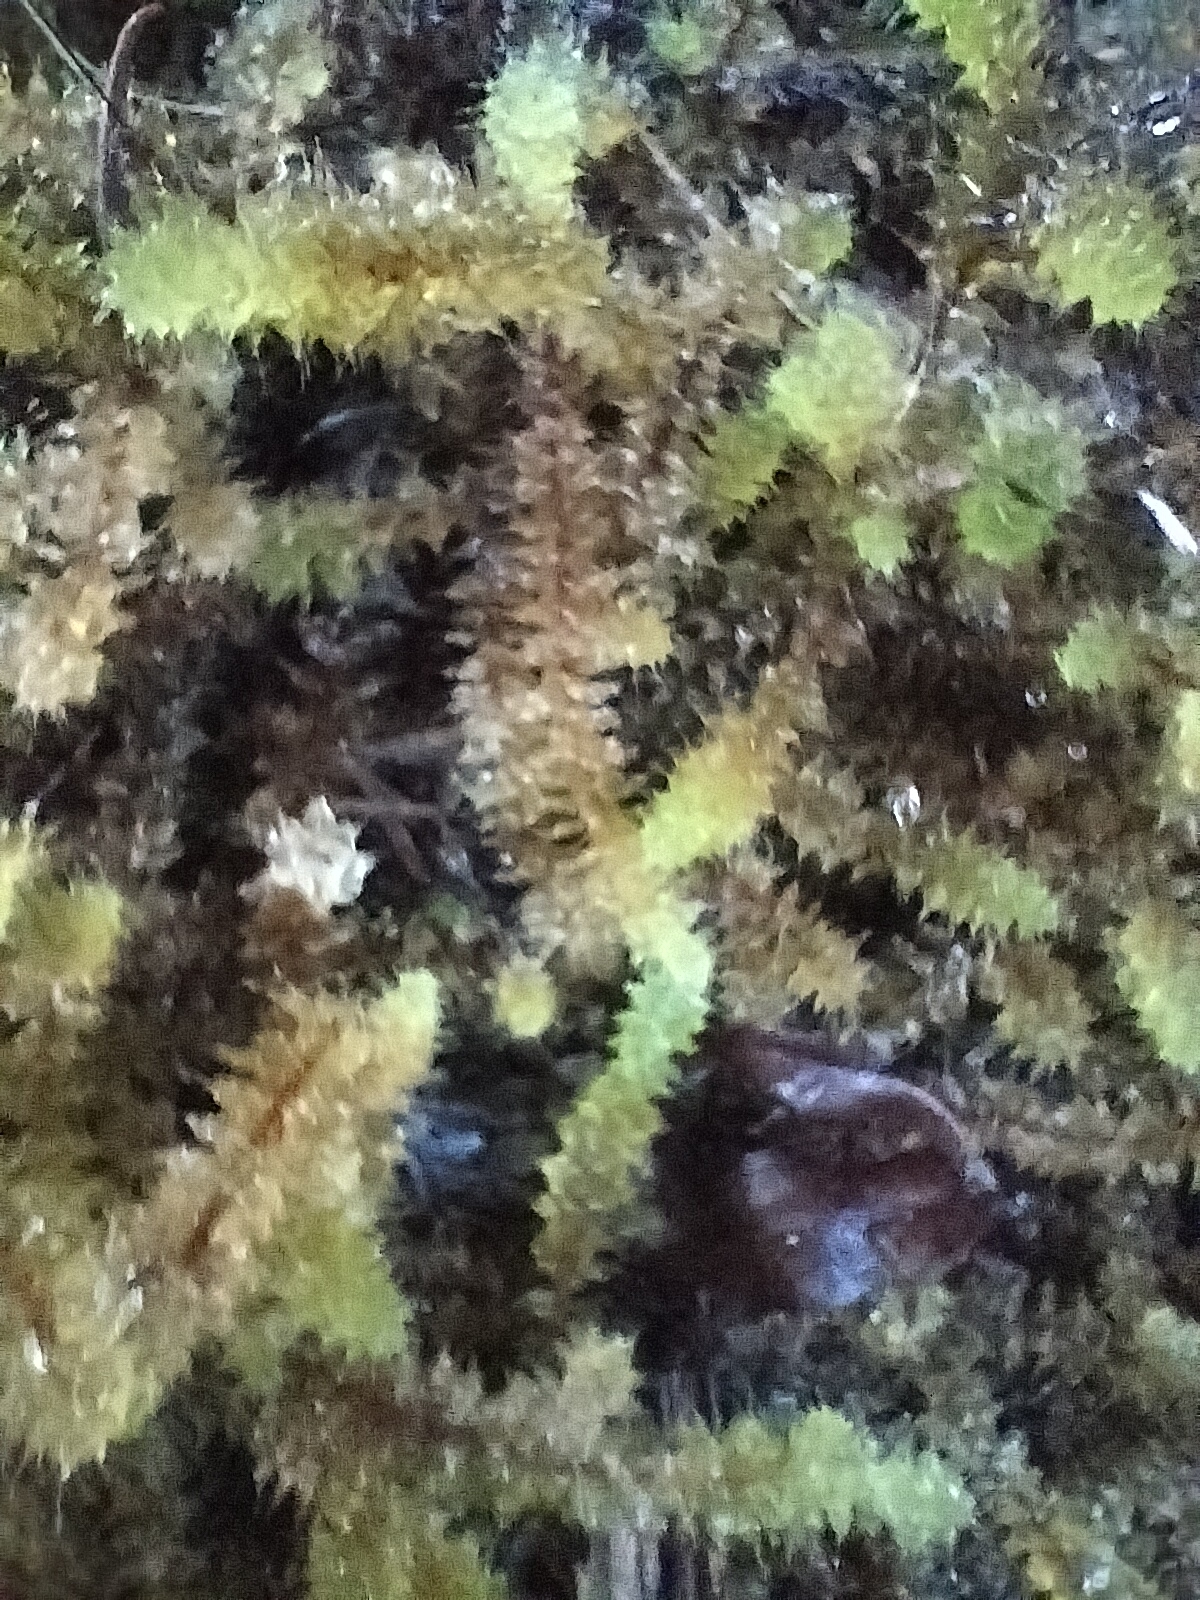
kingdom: Plantae
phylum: Bryophyta
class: Bryopsida
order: Ptychomniales
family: Ptychomniaceae
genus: Ptychomnion
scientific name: Ptychomnion aciculare
